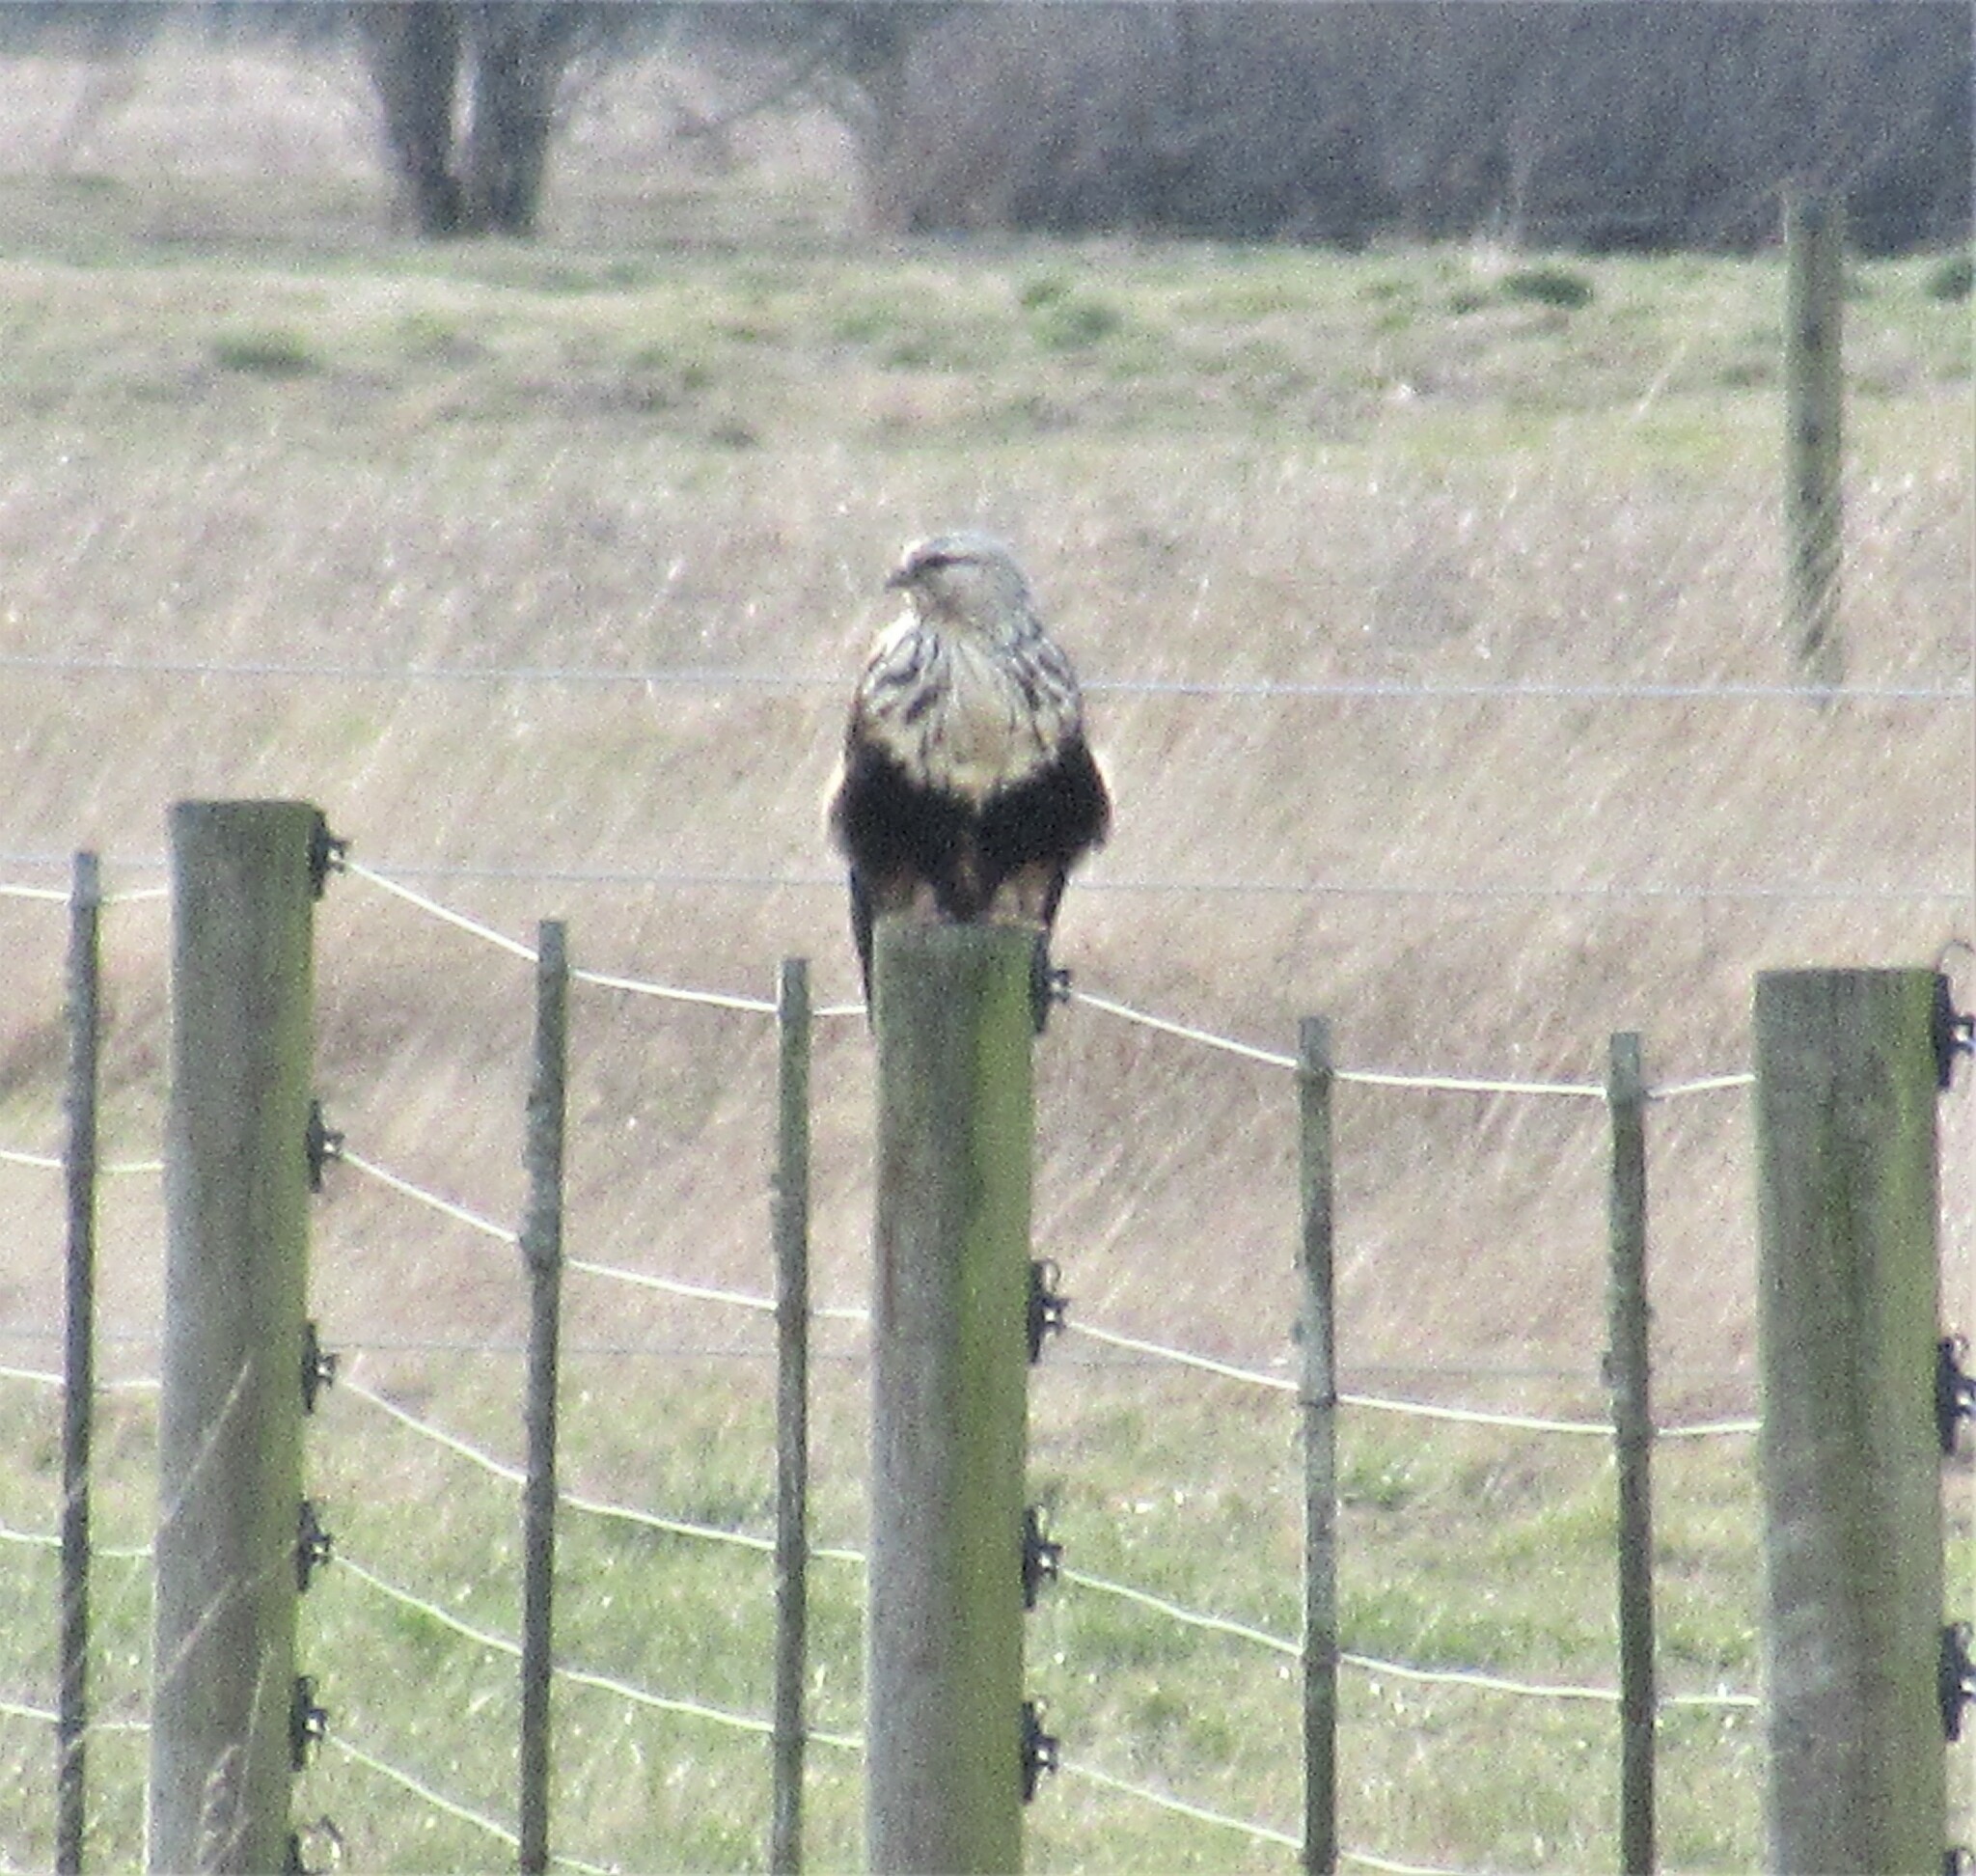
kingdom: Animalia
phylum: Chordata
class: Aves
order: Accipitriformes
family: Accipitridae
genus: Buteo
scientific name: Buteo lagopus
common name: Rough-legged buzzard
